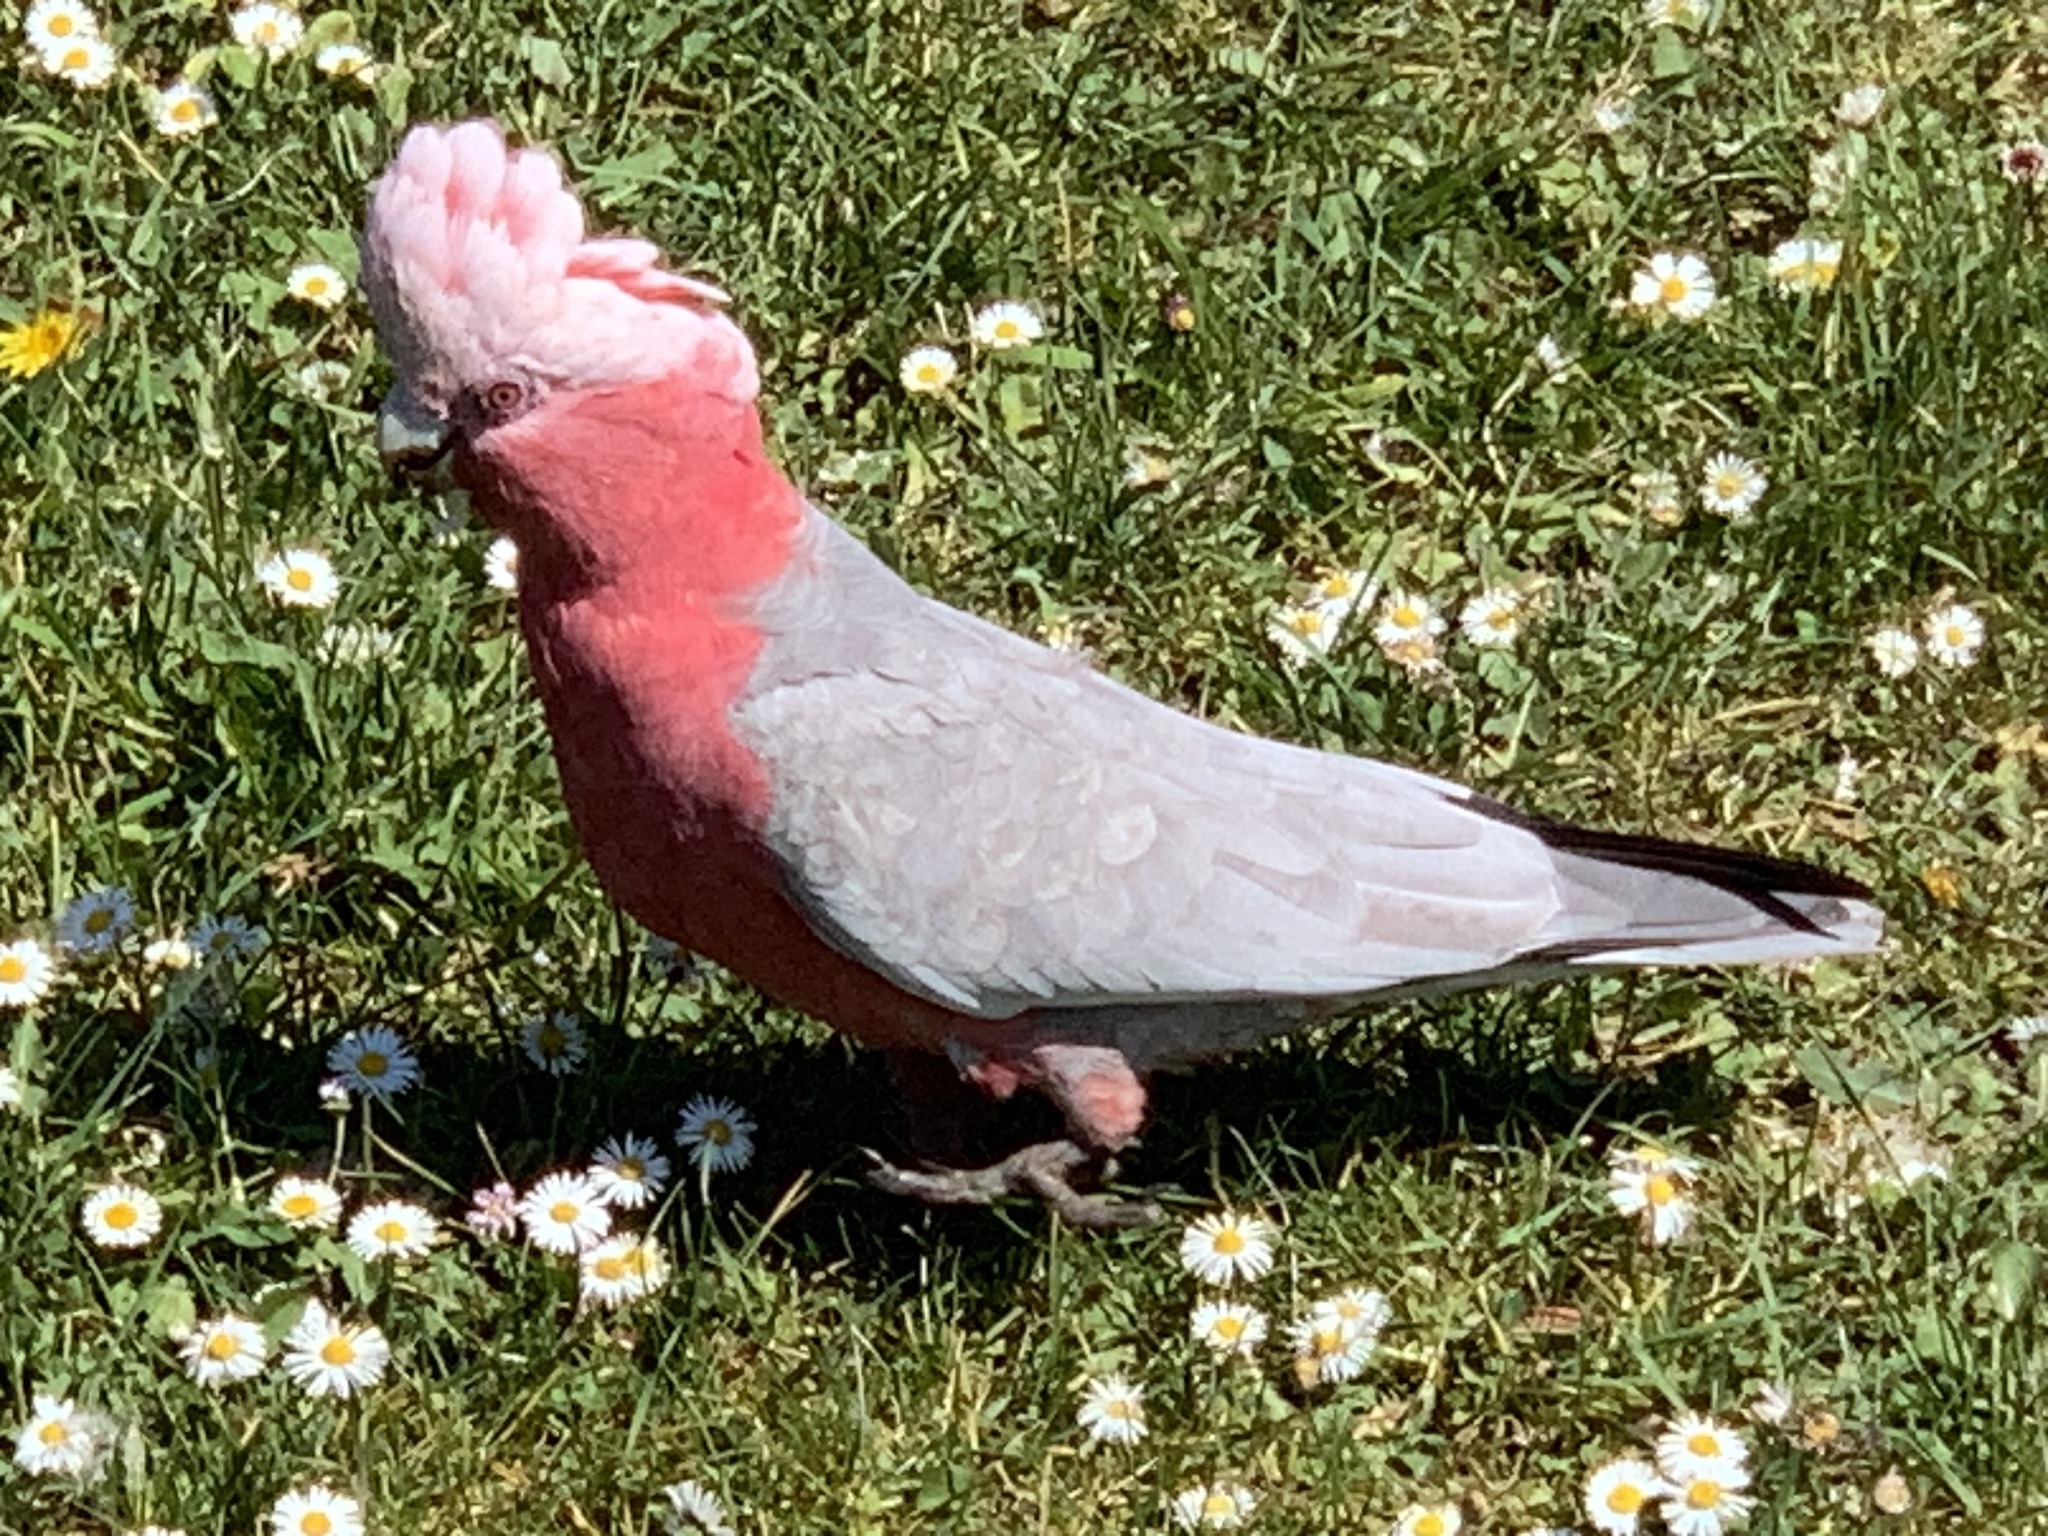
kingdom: Animalia
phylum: Chordata
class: Aves
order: Psittaciformes
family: Psittacidae
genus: Eolophus
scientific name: Eolophus roseicapilla
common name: Galah
